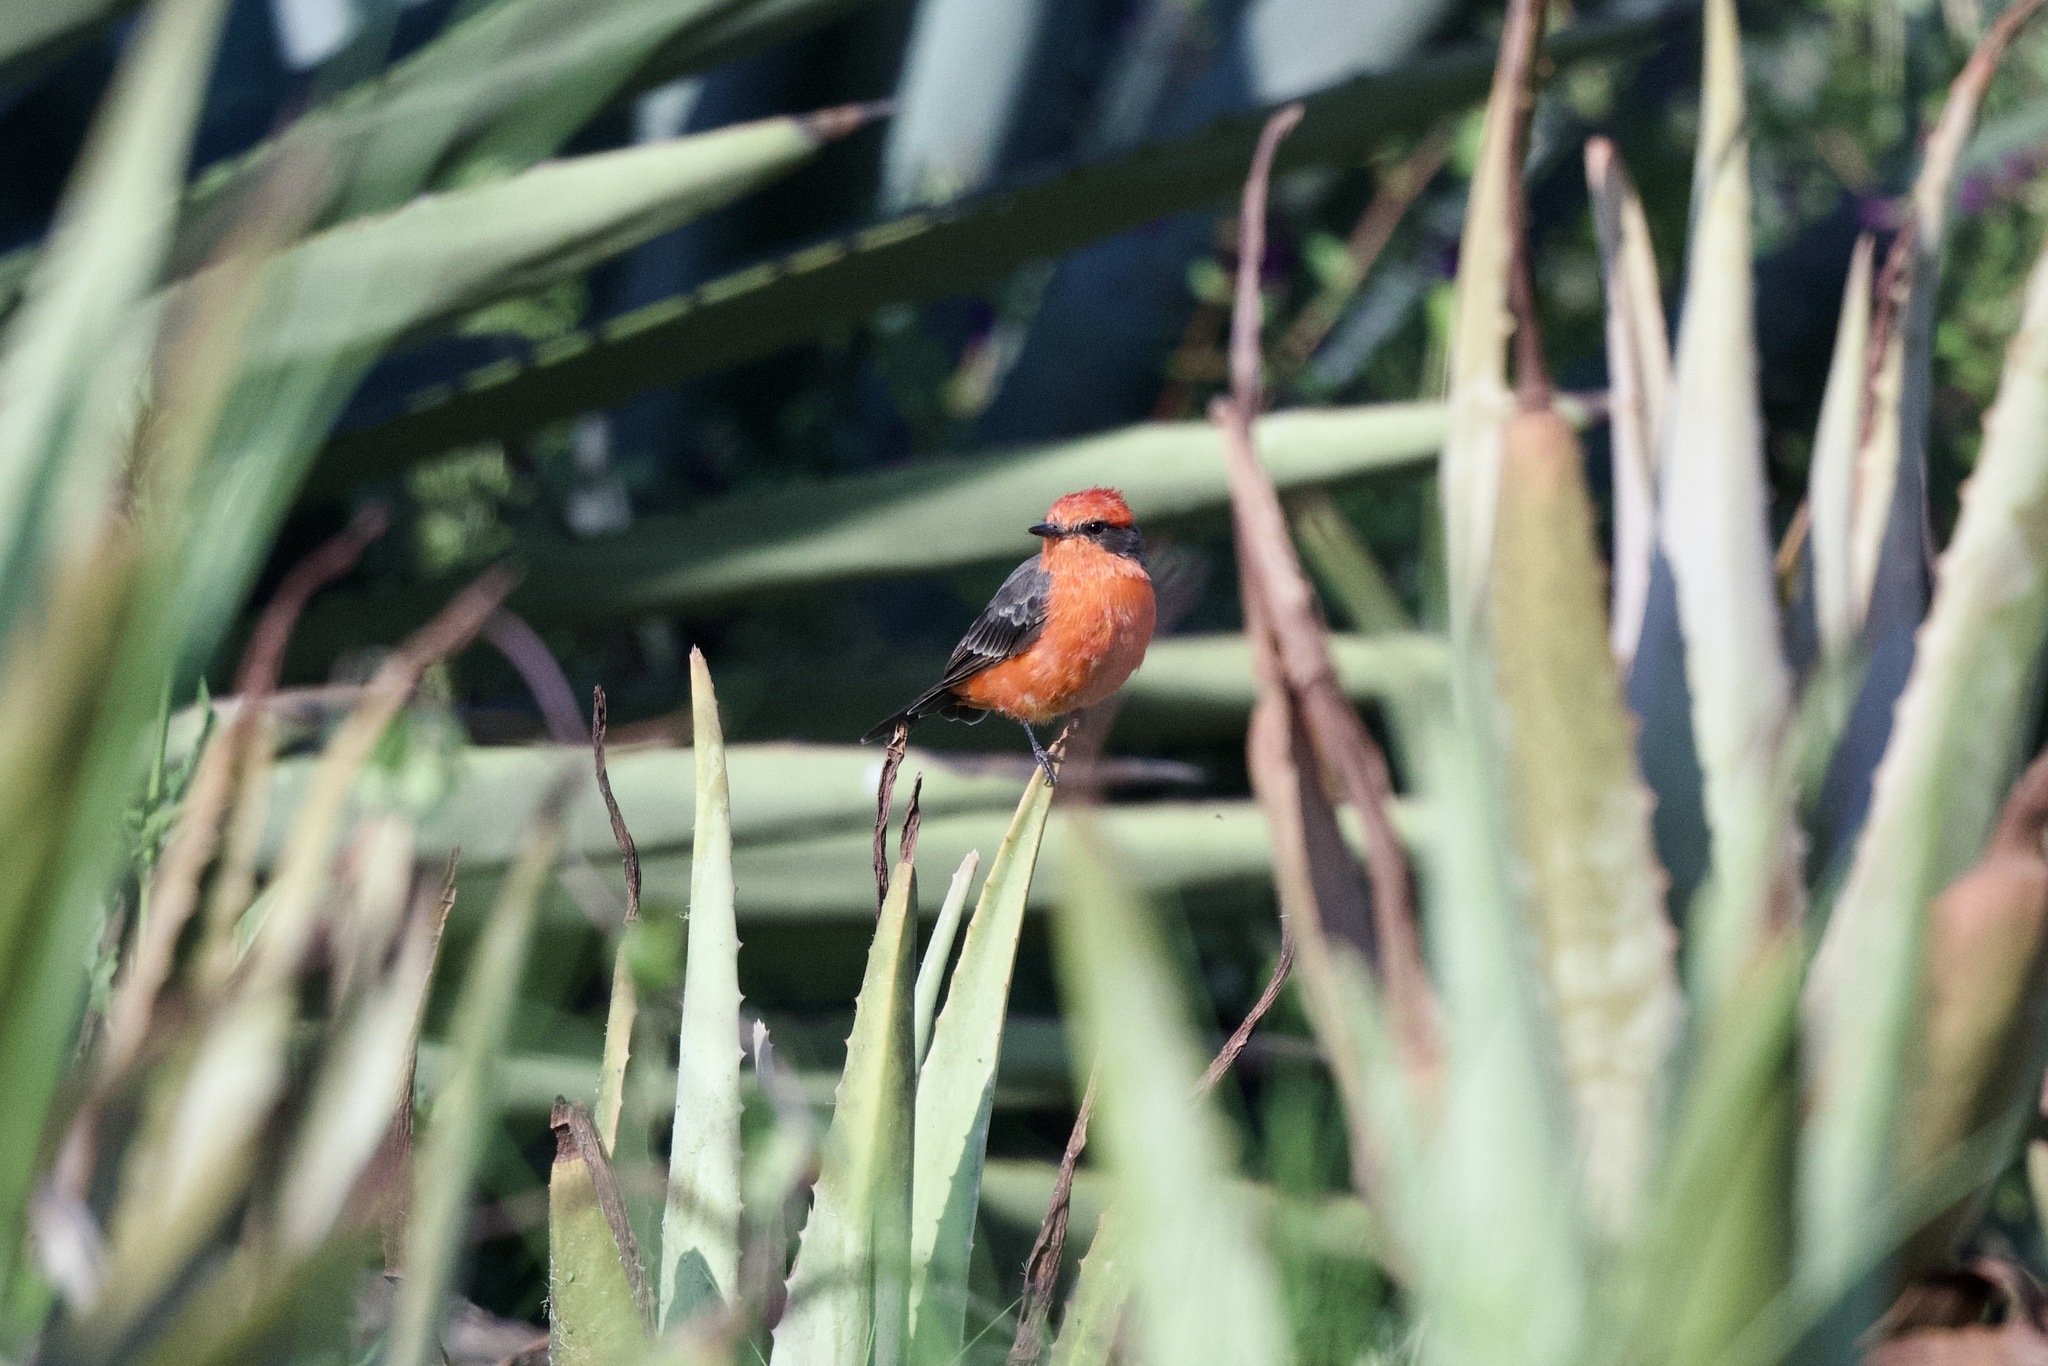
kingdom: Animalia
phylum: Chordata
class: Aves
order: Passeriformes
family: Tyrannidae
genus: Pyrocephalus
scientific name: Pyrocephalus rubinus
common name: Vermilion flycatcher
